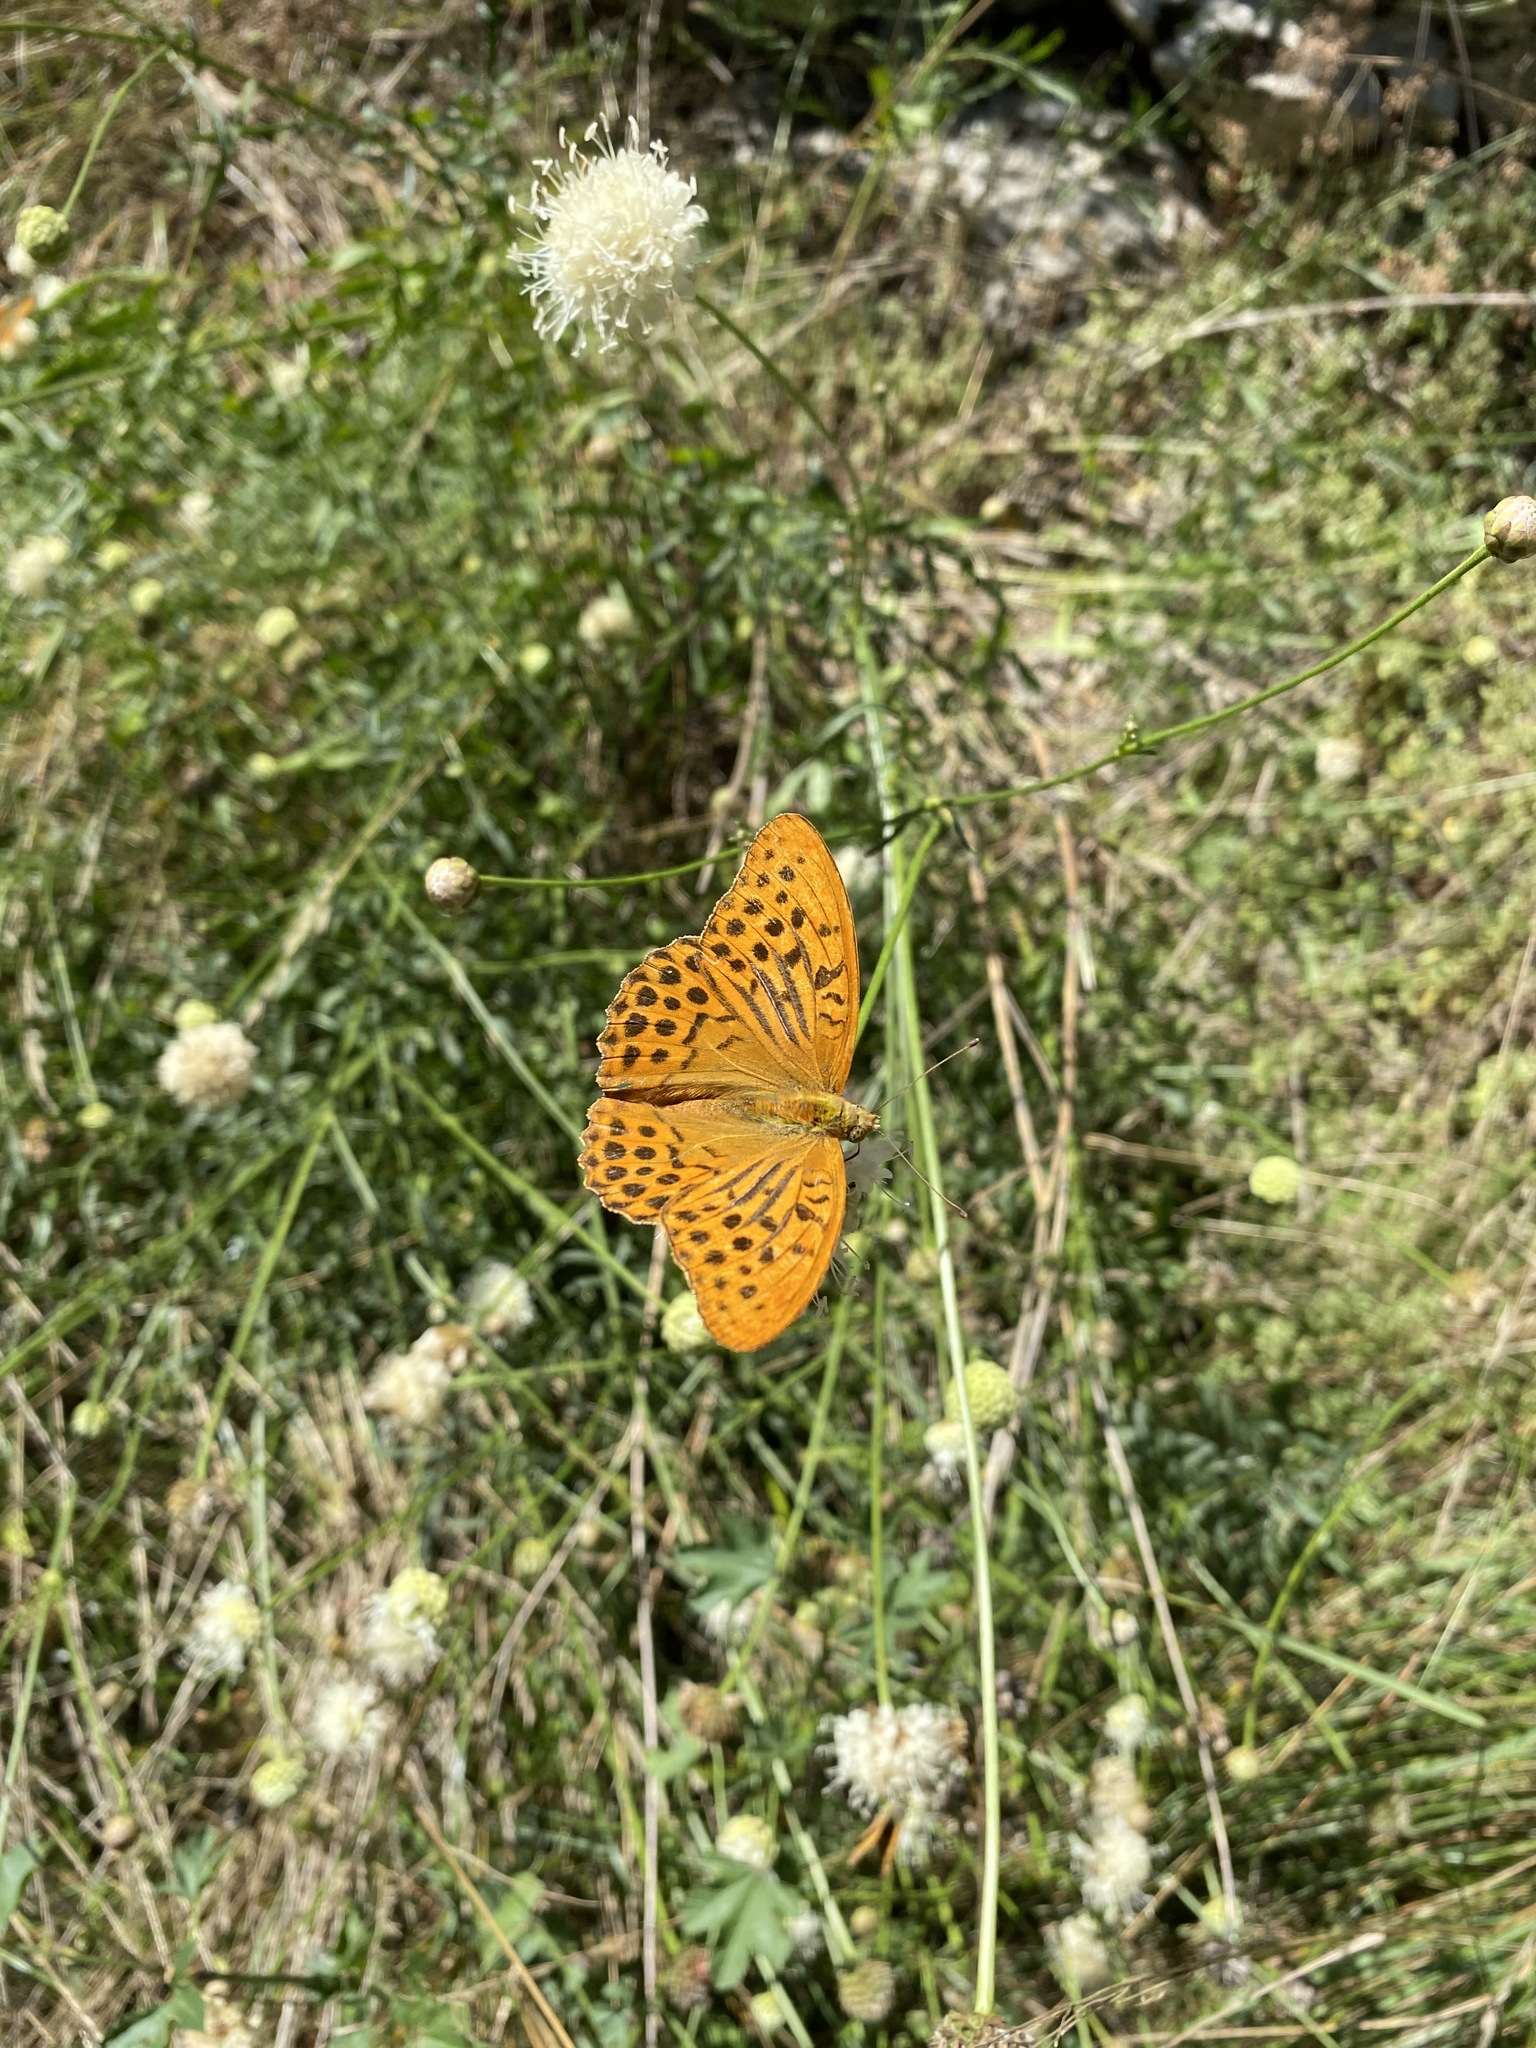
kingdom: Animalia
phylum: Arthropoda
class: Insecta
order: Lepidoptera
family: Nymphalidae
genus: Argynnis
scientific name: Argynnis paphia
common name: Silver-washed fritillary
